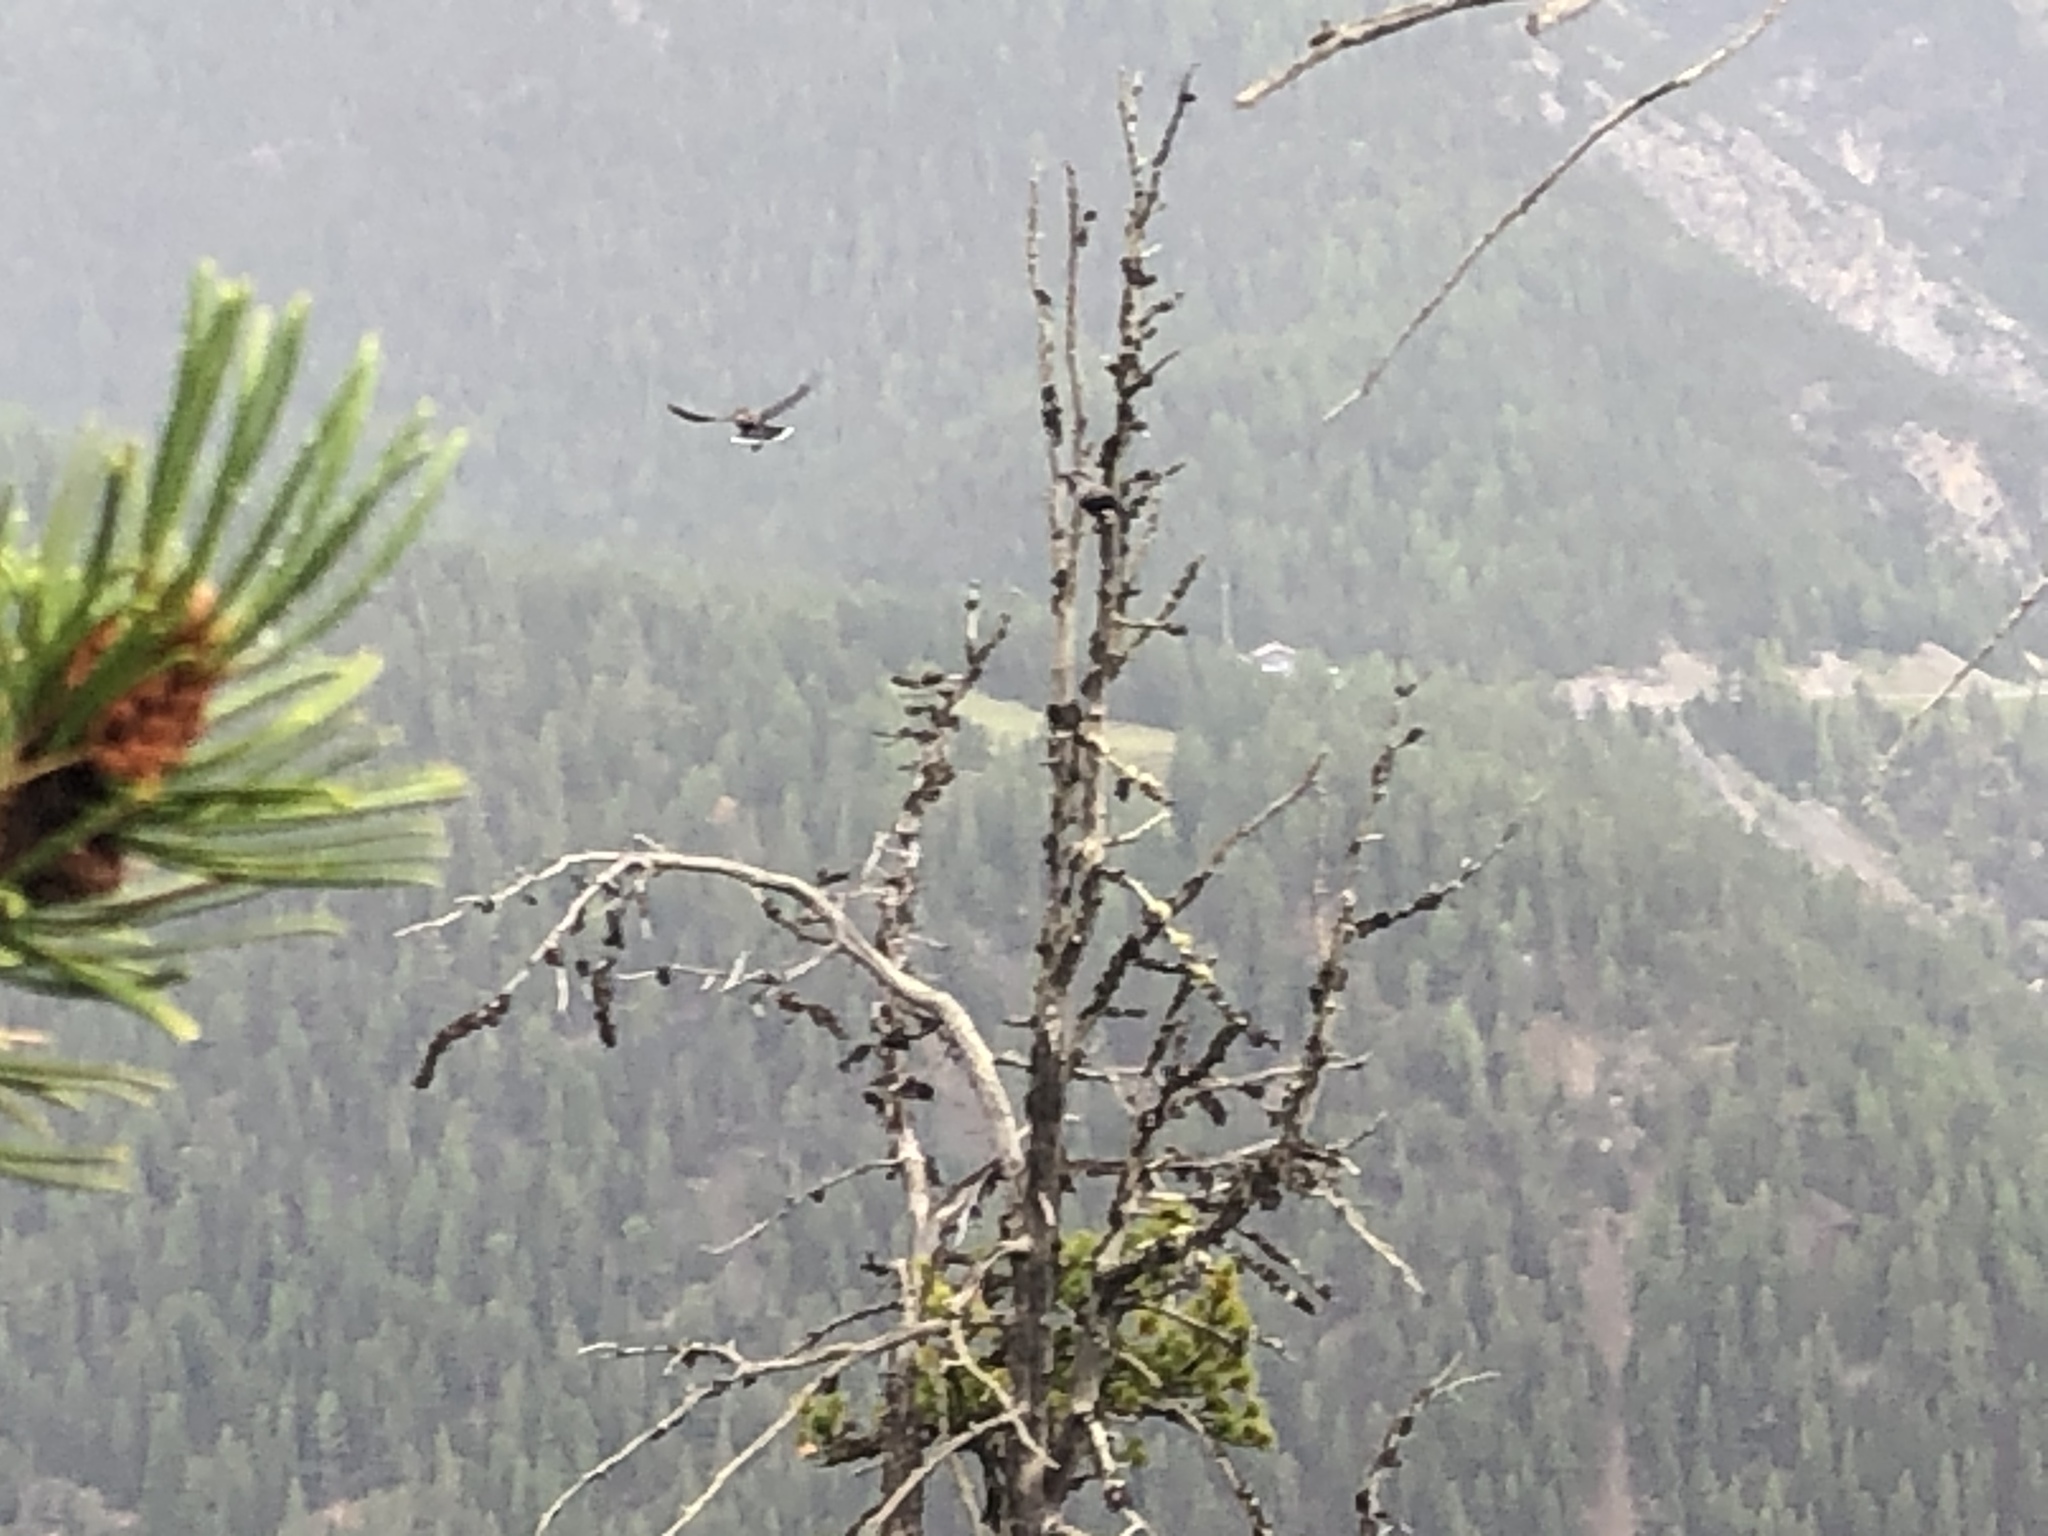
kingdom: Animalia
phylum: Chordata
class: Aves
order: Passeriformes
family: Corvidae
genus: Nucifraga
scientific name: Nucifraga caryocatactes
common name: Spotted nutcracker
